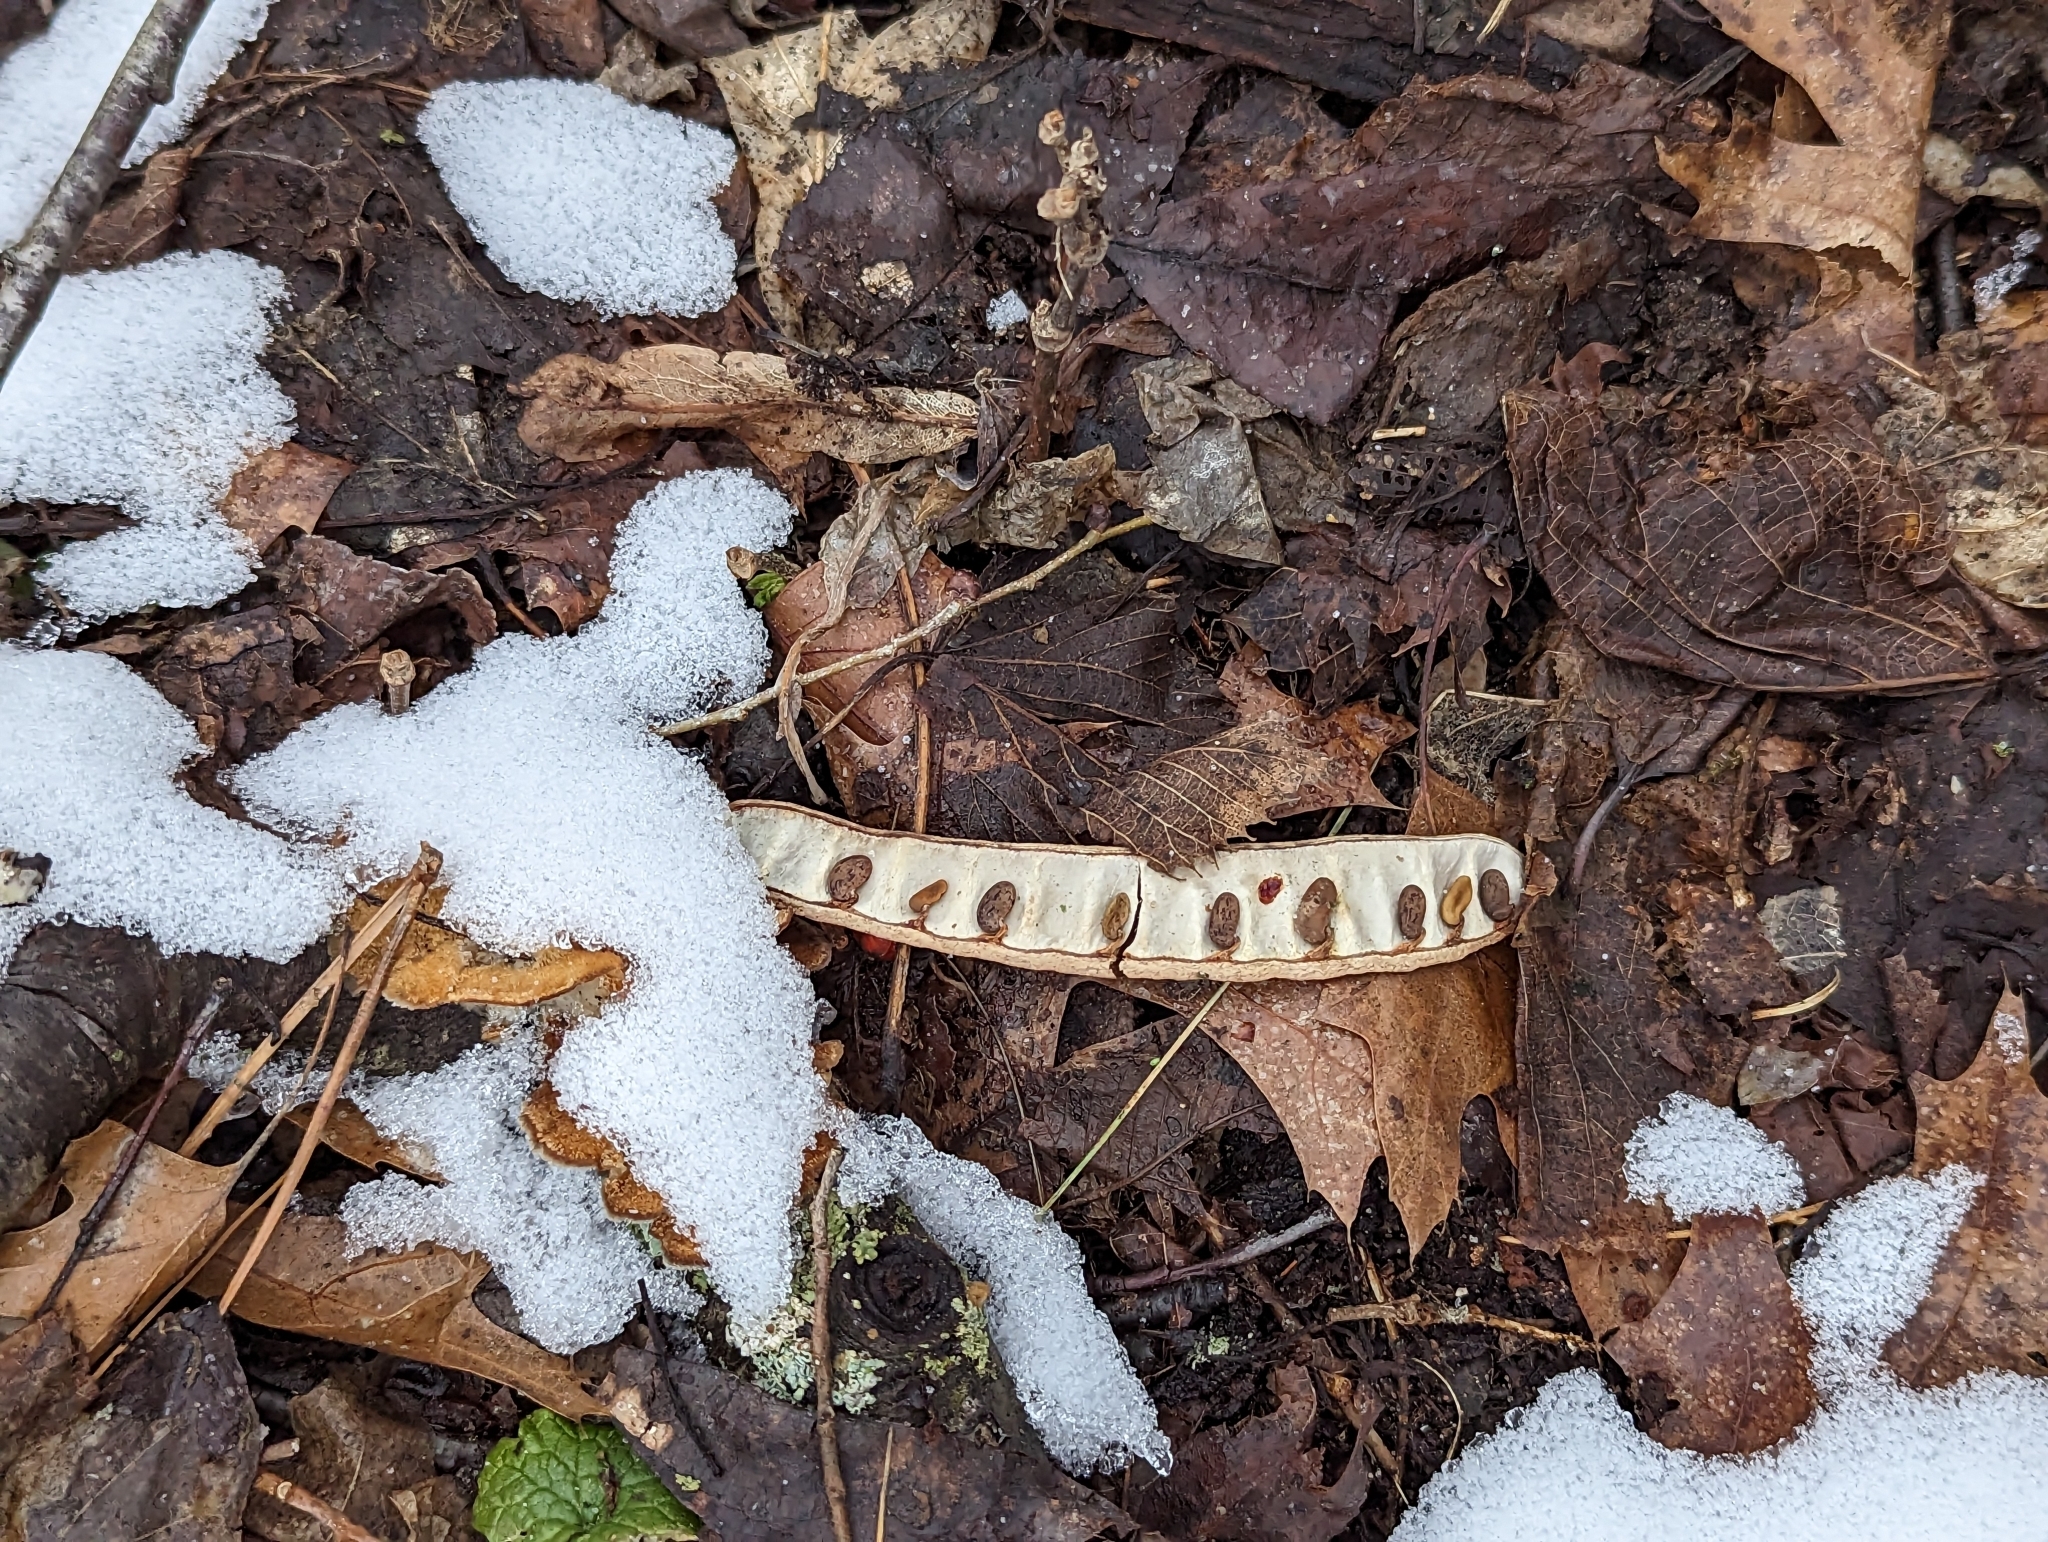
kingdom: Plantae
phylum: Tracheophyta
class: Magnoliopsida
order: Fabales
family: Fabaceae
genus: Robinia
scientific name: Robinia pseudoacacia
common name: Black locust
